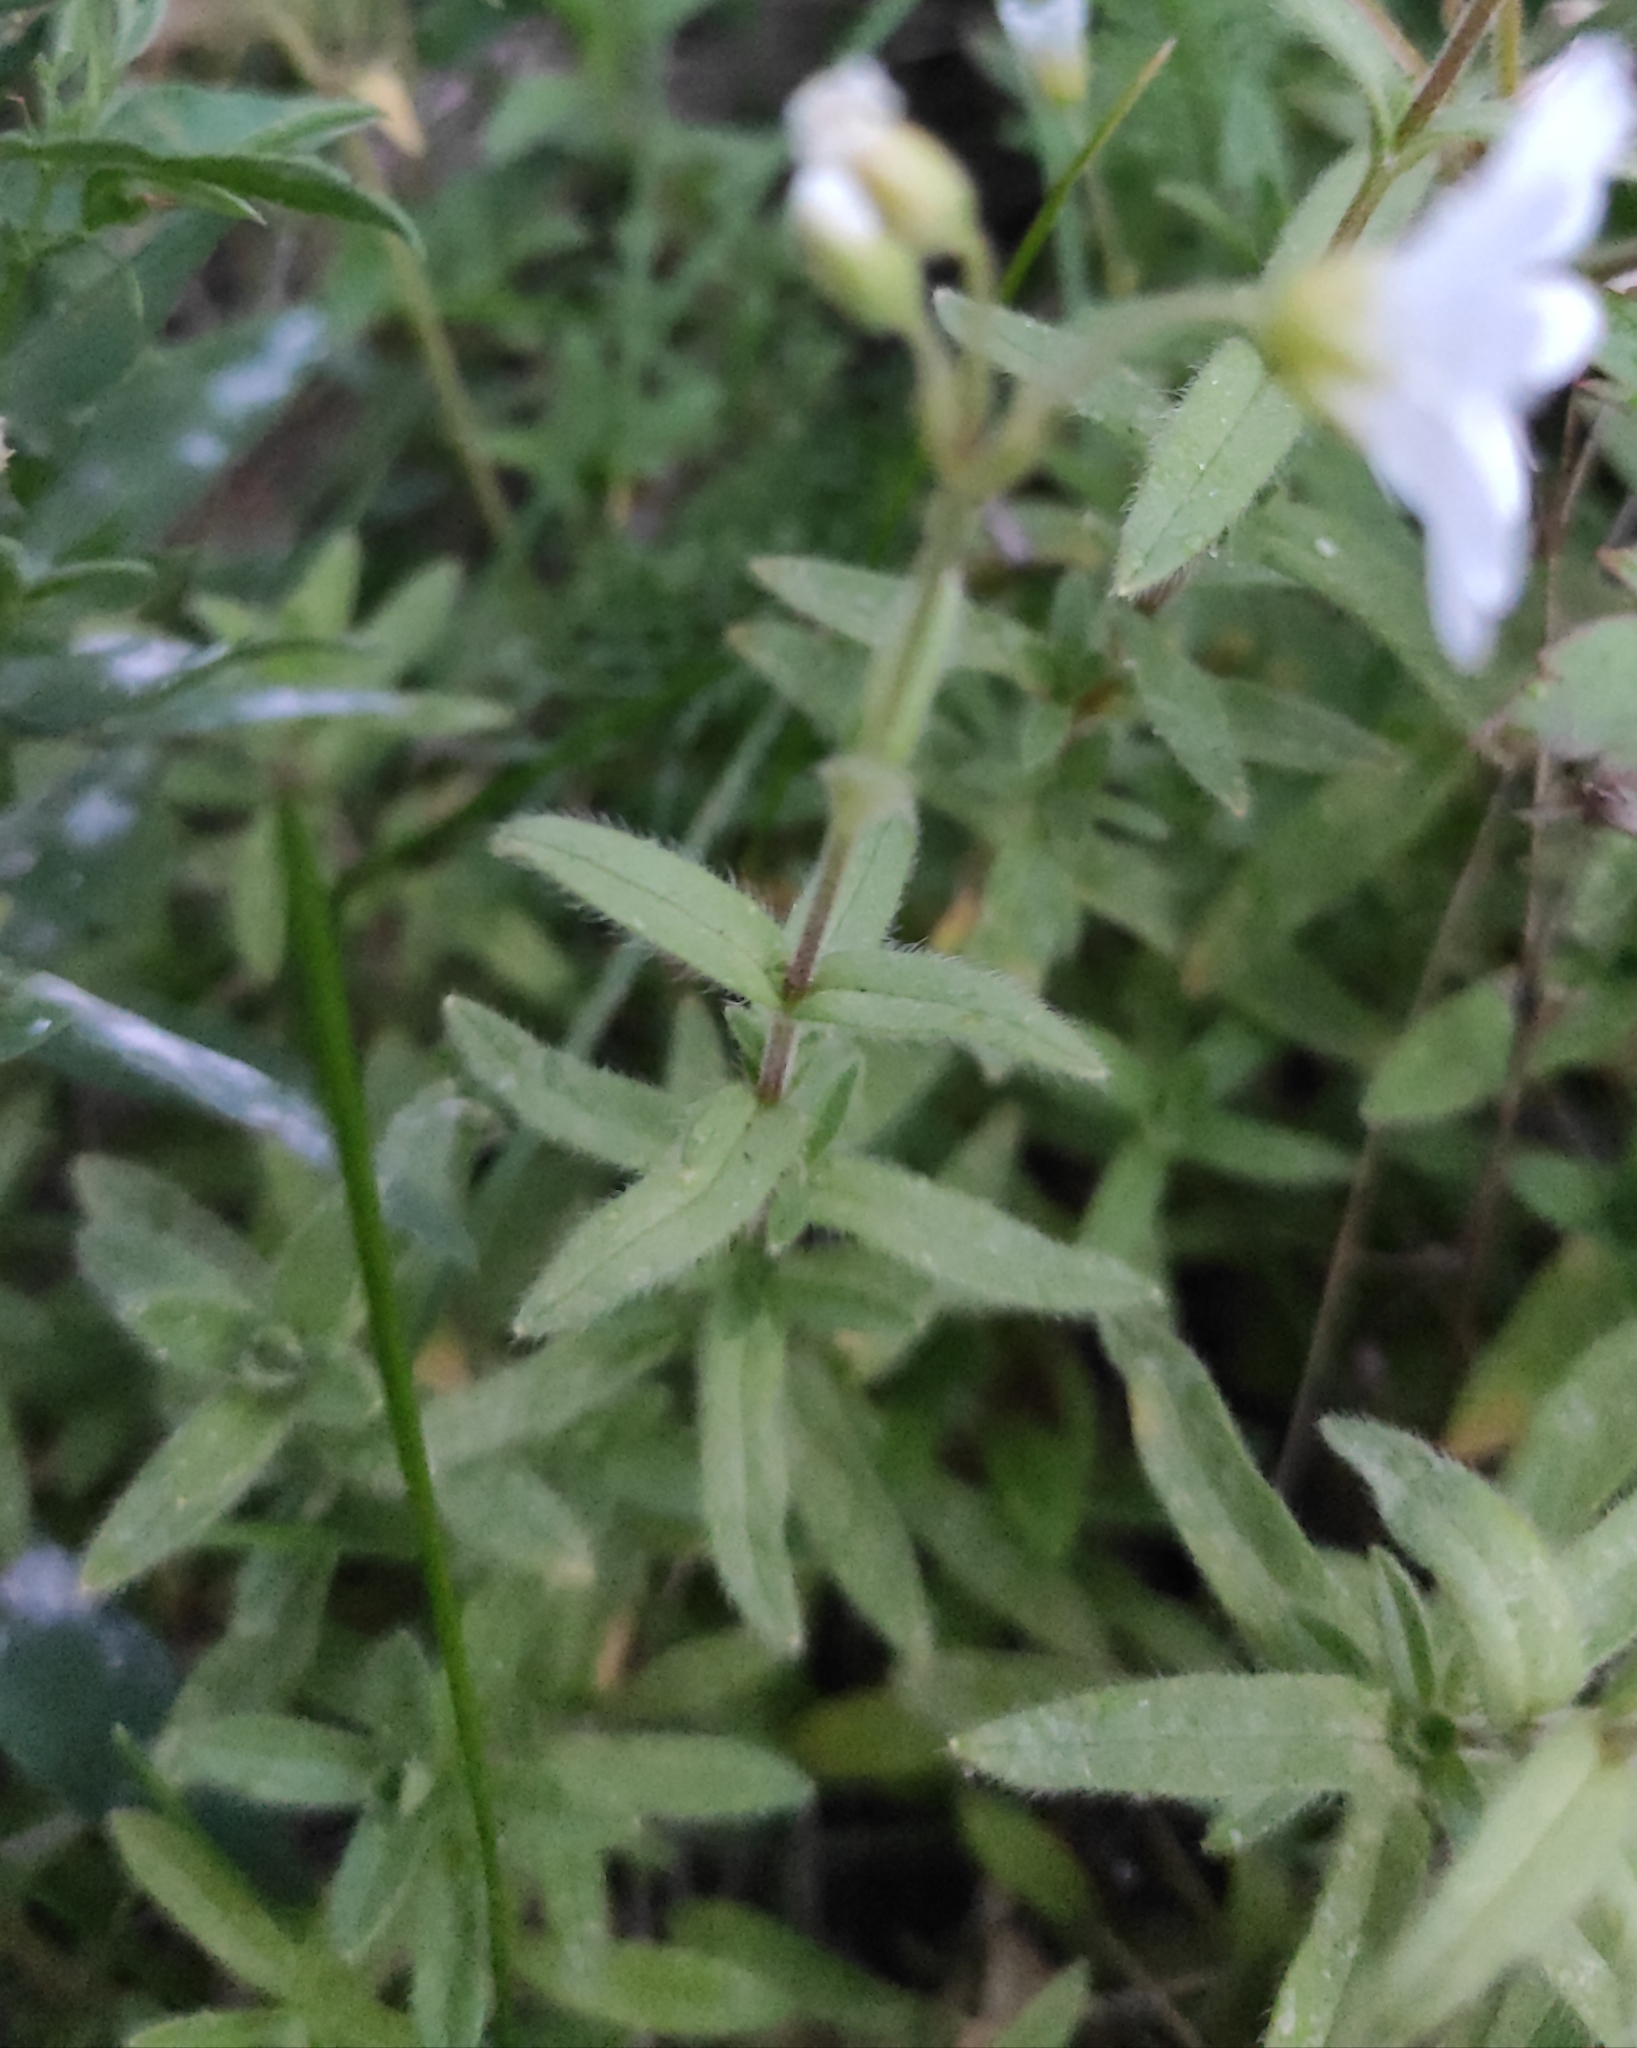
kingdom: Plantae
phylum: Tracheophyta
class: Magnoliopsida
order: Caryophyllales
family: Caryophyllaceae
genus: Cerastium
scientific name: Cerastium arvense
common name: Field mouse-ear
